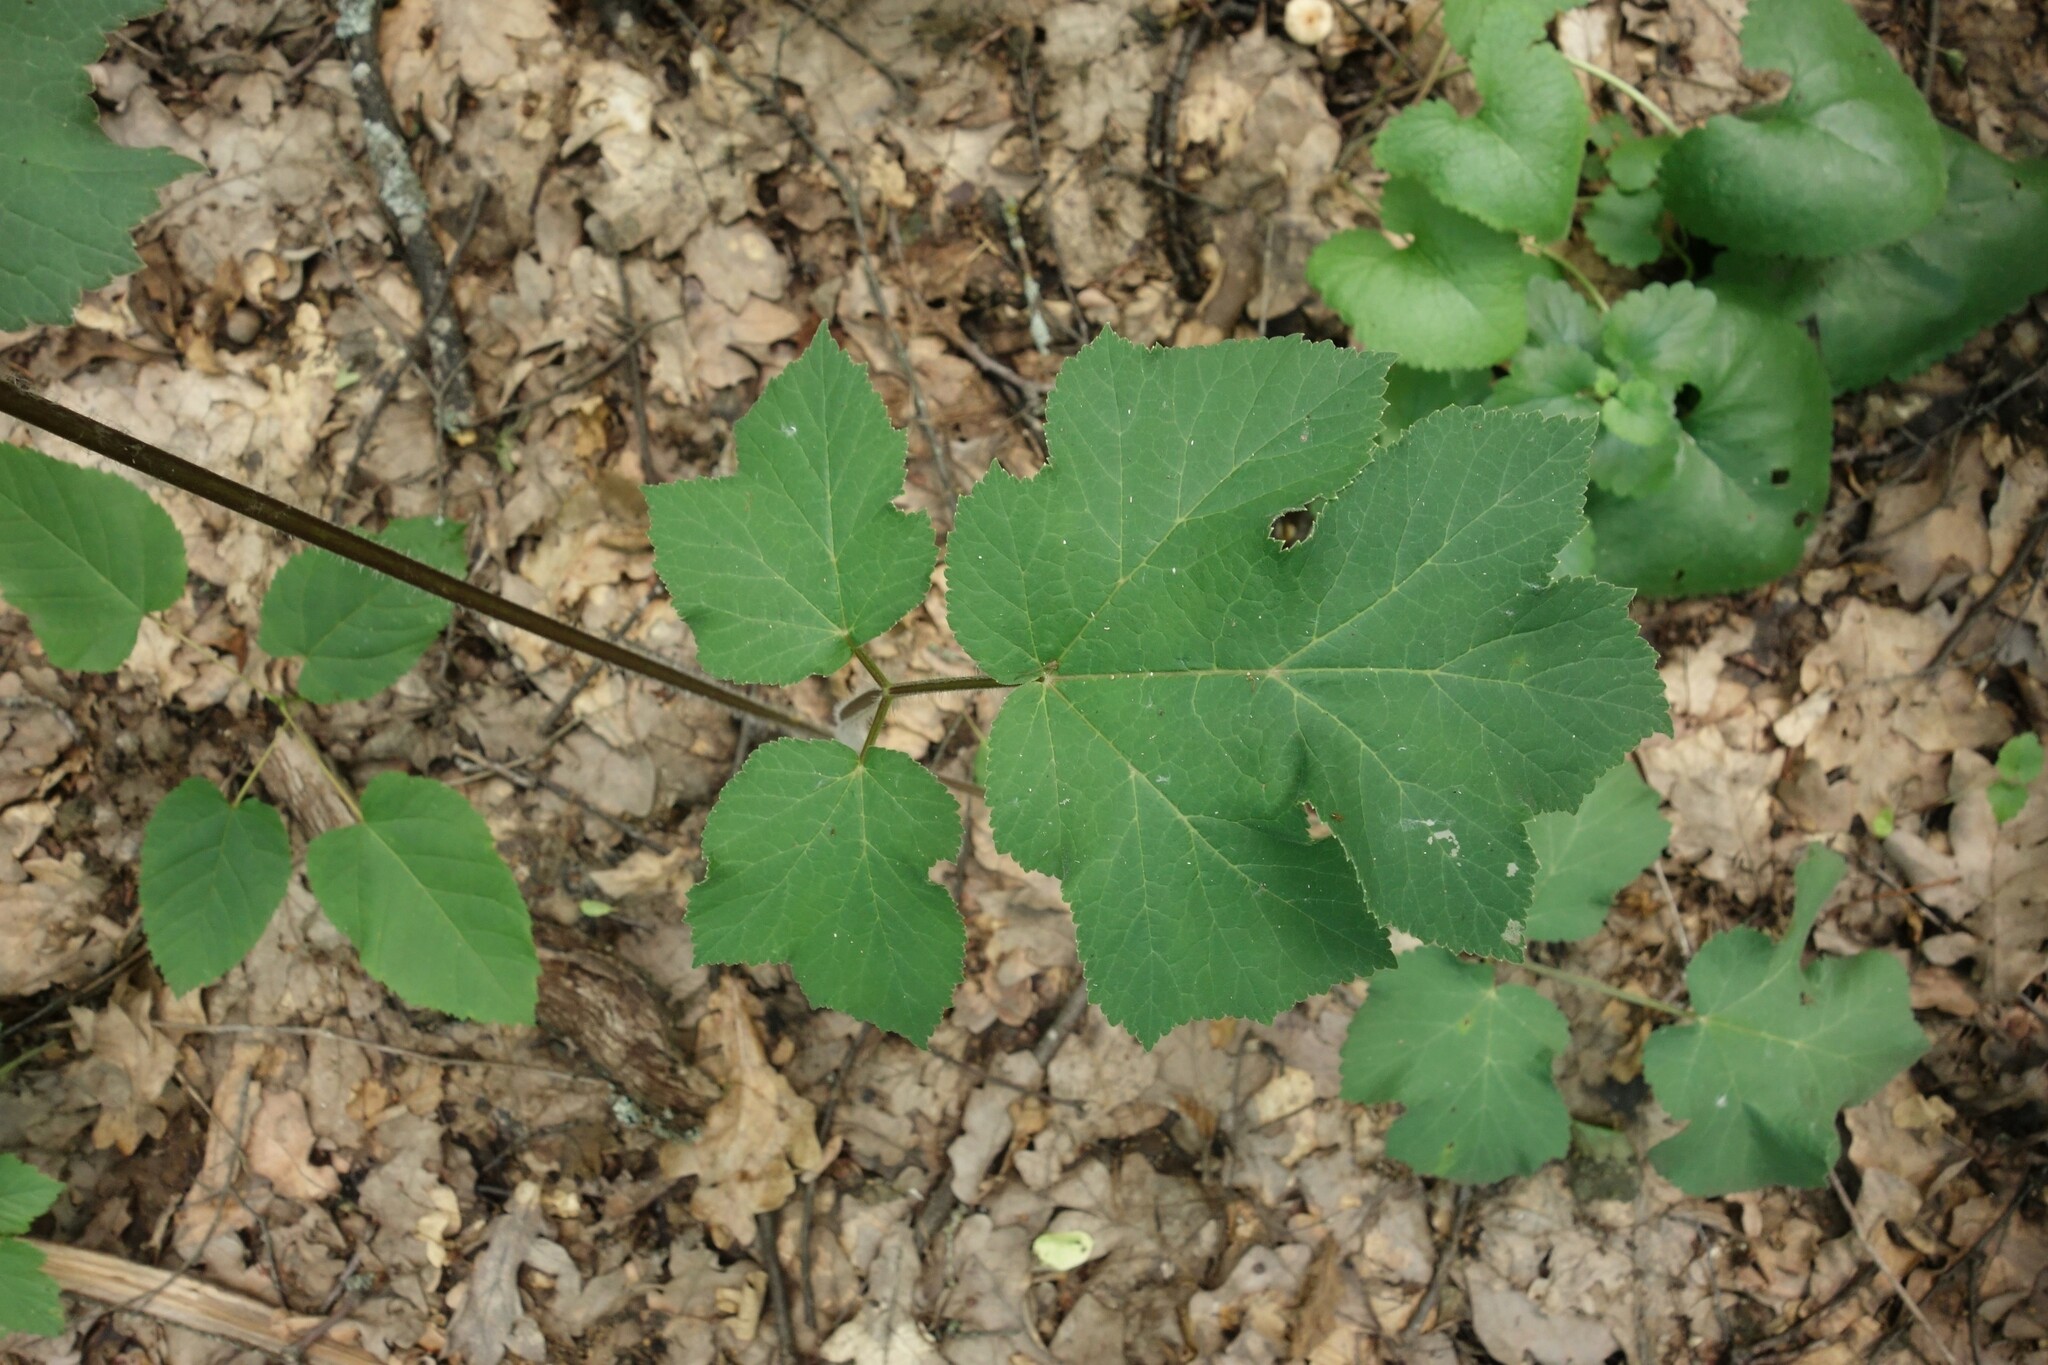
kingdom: Plantae
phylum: Tracheophyta
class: Magnoliopsida
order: Apiales
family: Apiaceae
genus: Heracleum
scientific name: Heracleum sphondylium
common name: Hogweed
